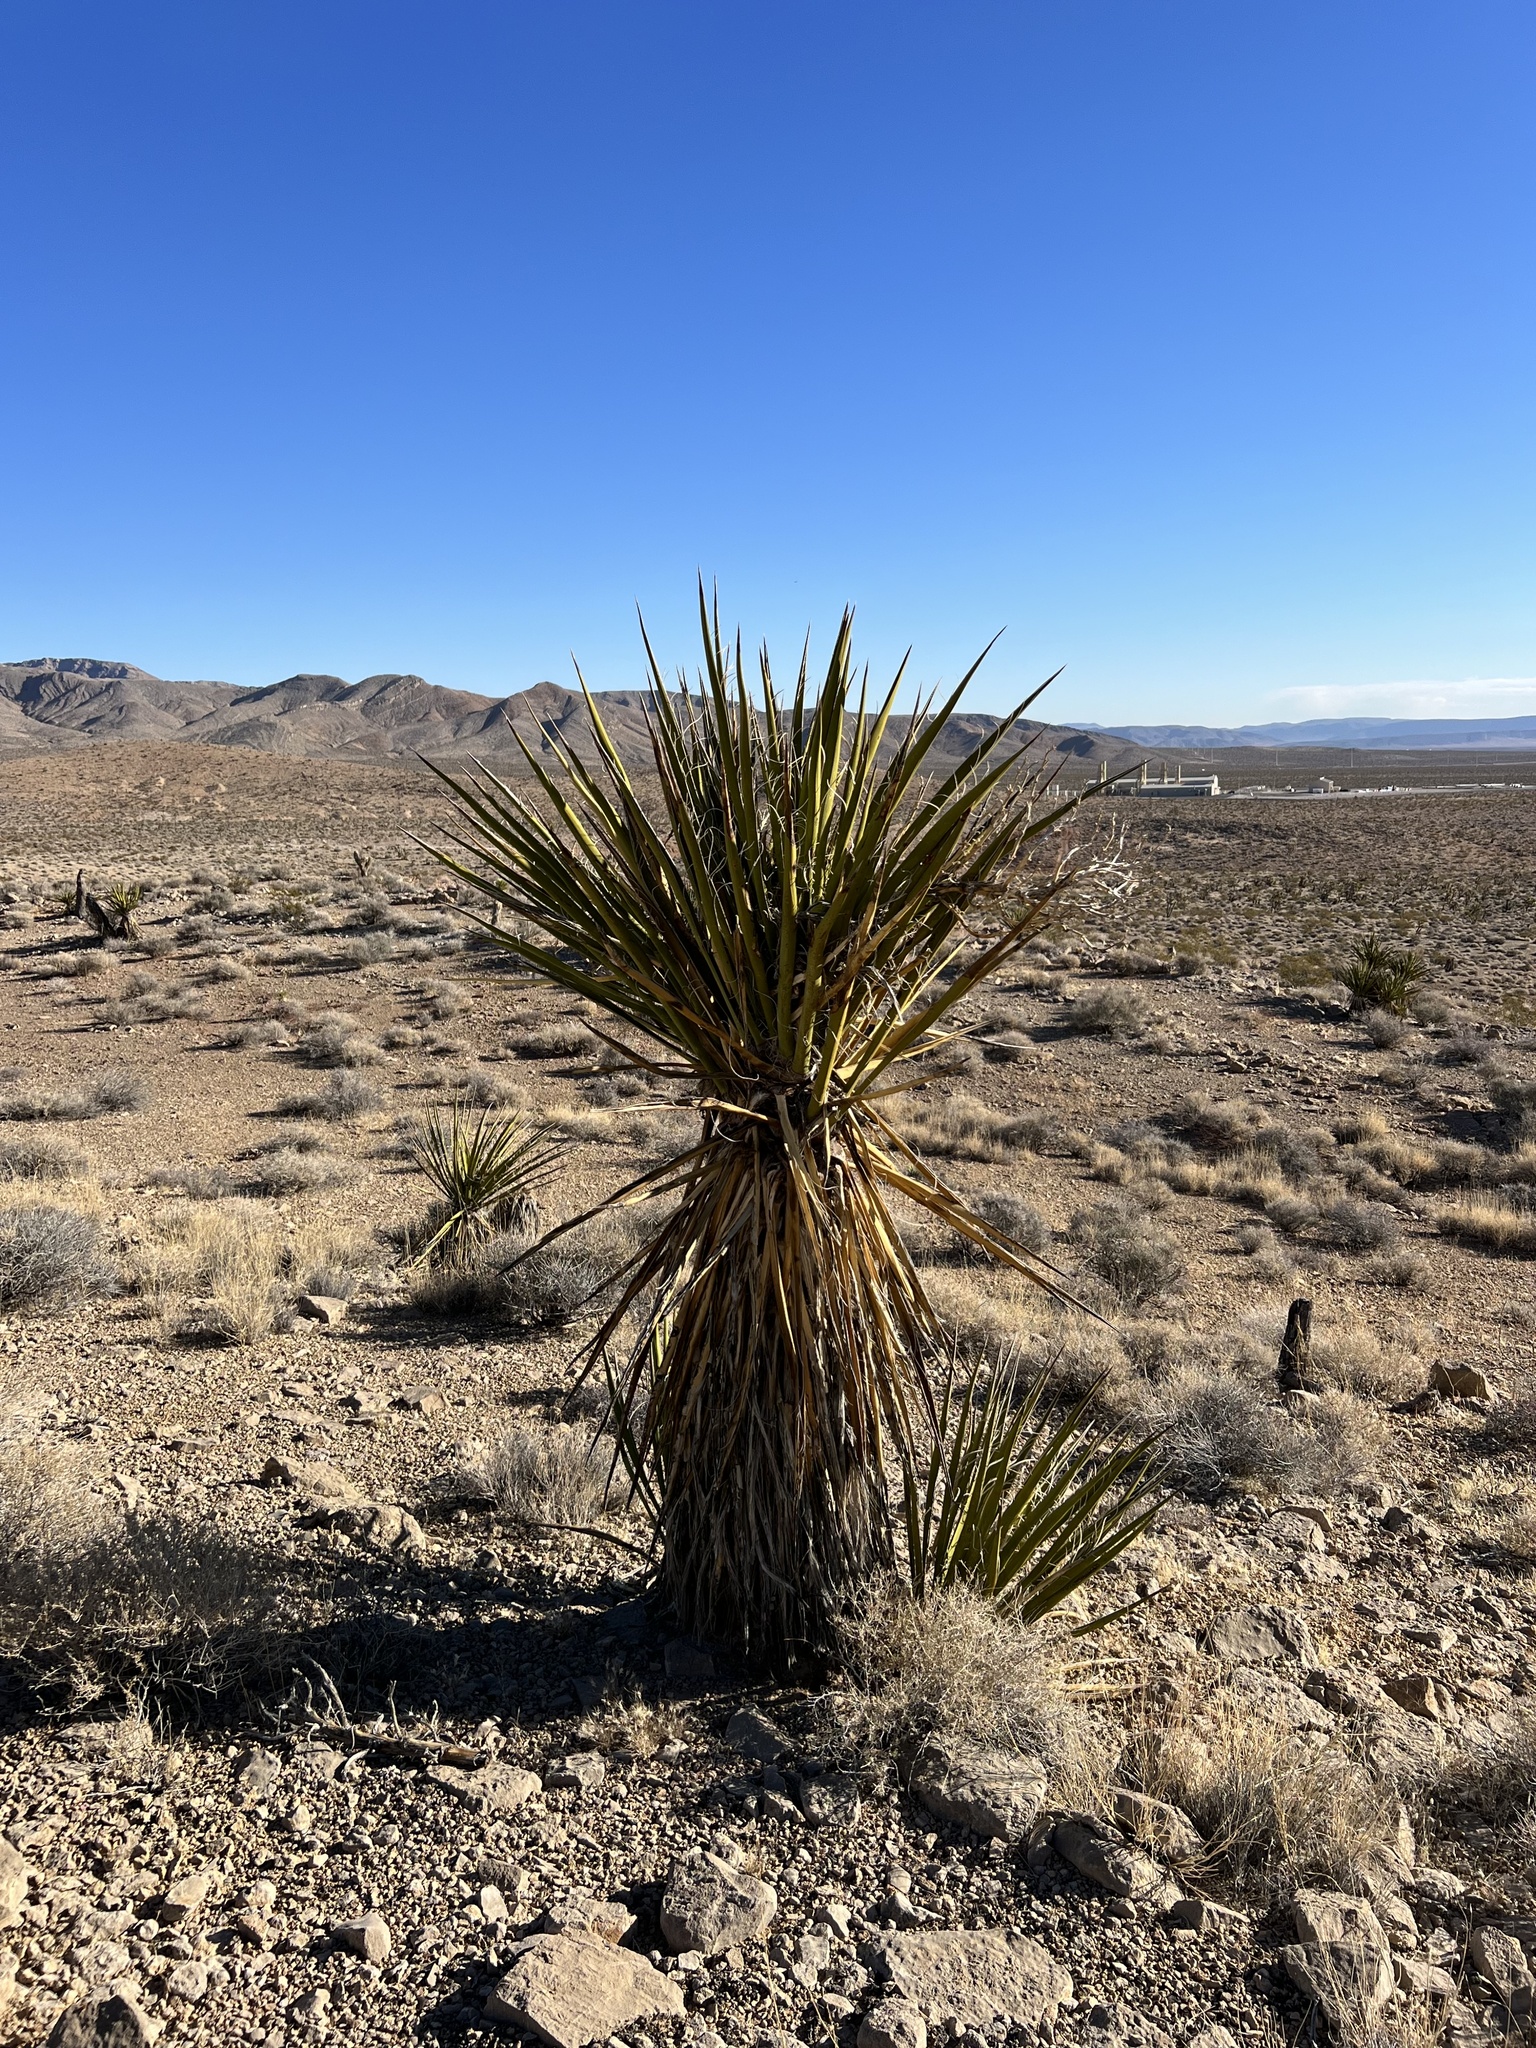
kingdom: Plantae
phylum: Tracheophyta
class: Liliopsida
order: Asparagales
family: Asparagaceae
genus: Yucca
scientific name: Yucca schidigera
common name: Mojave yucca
